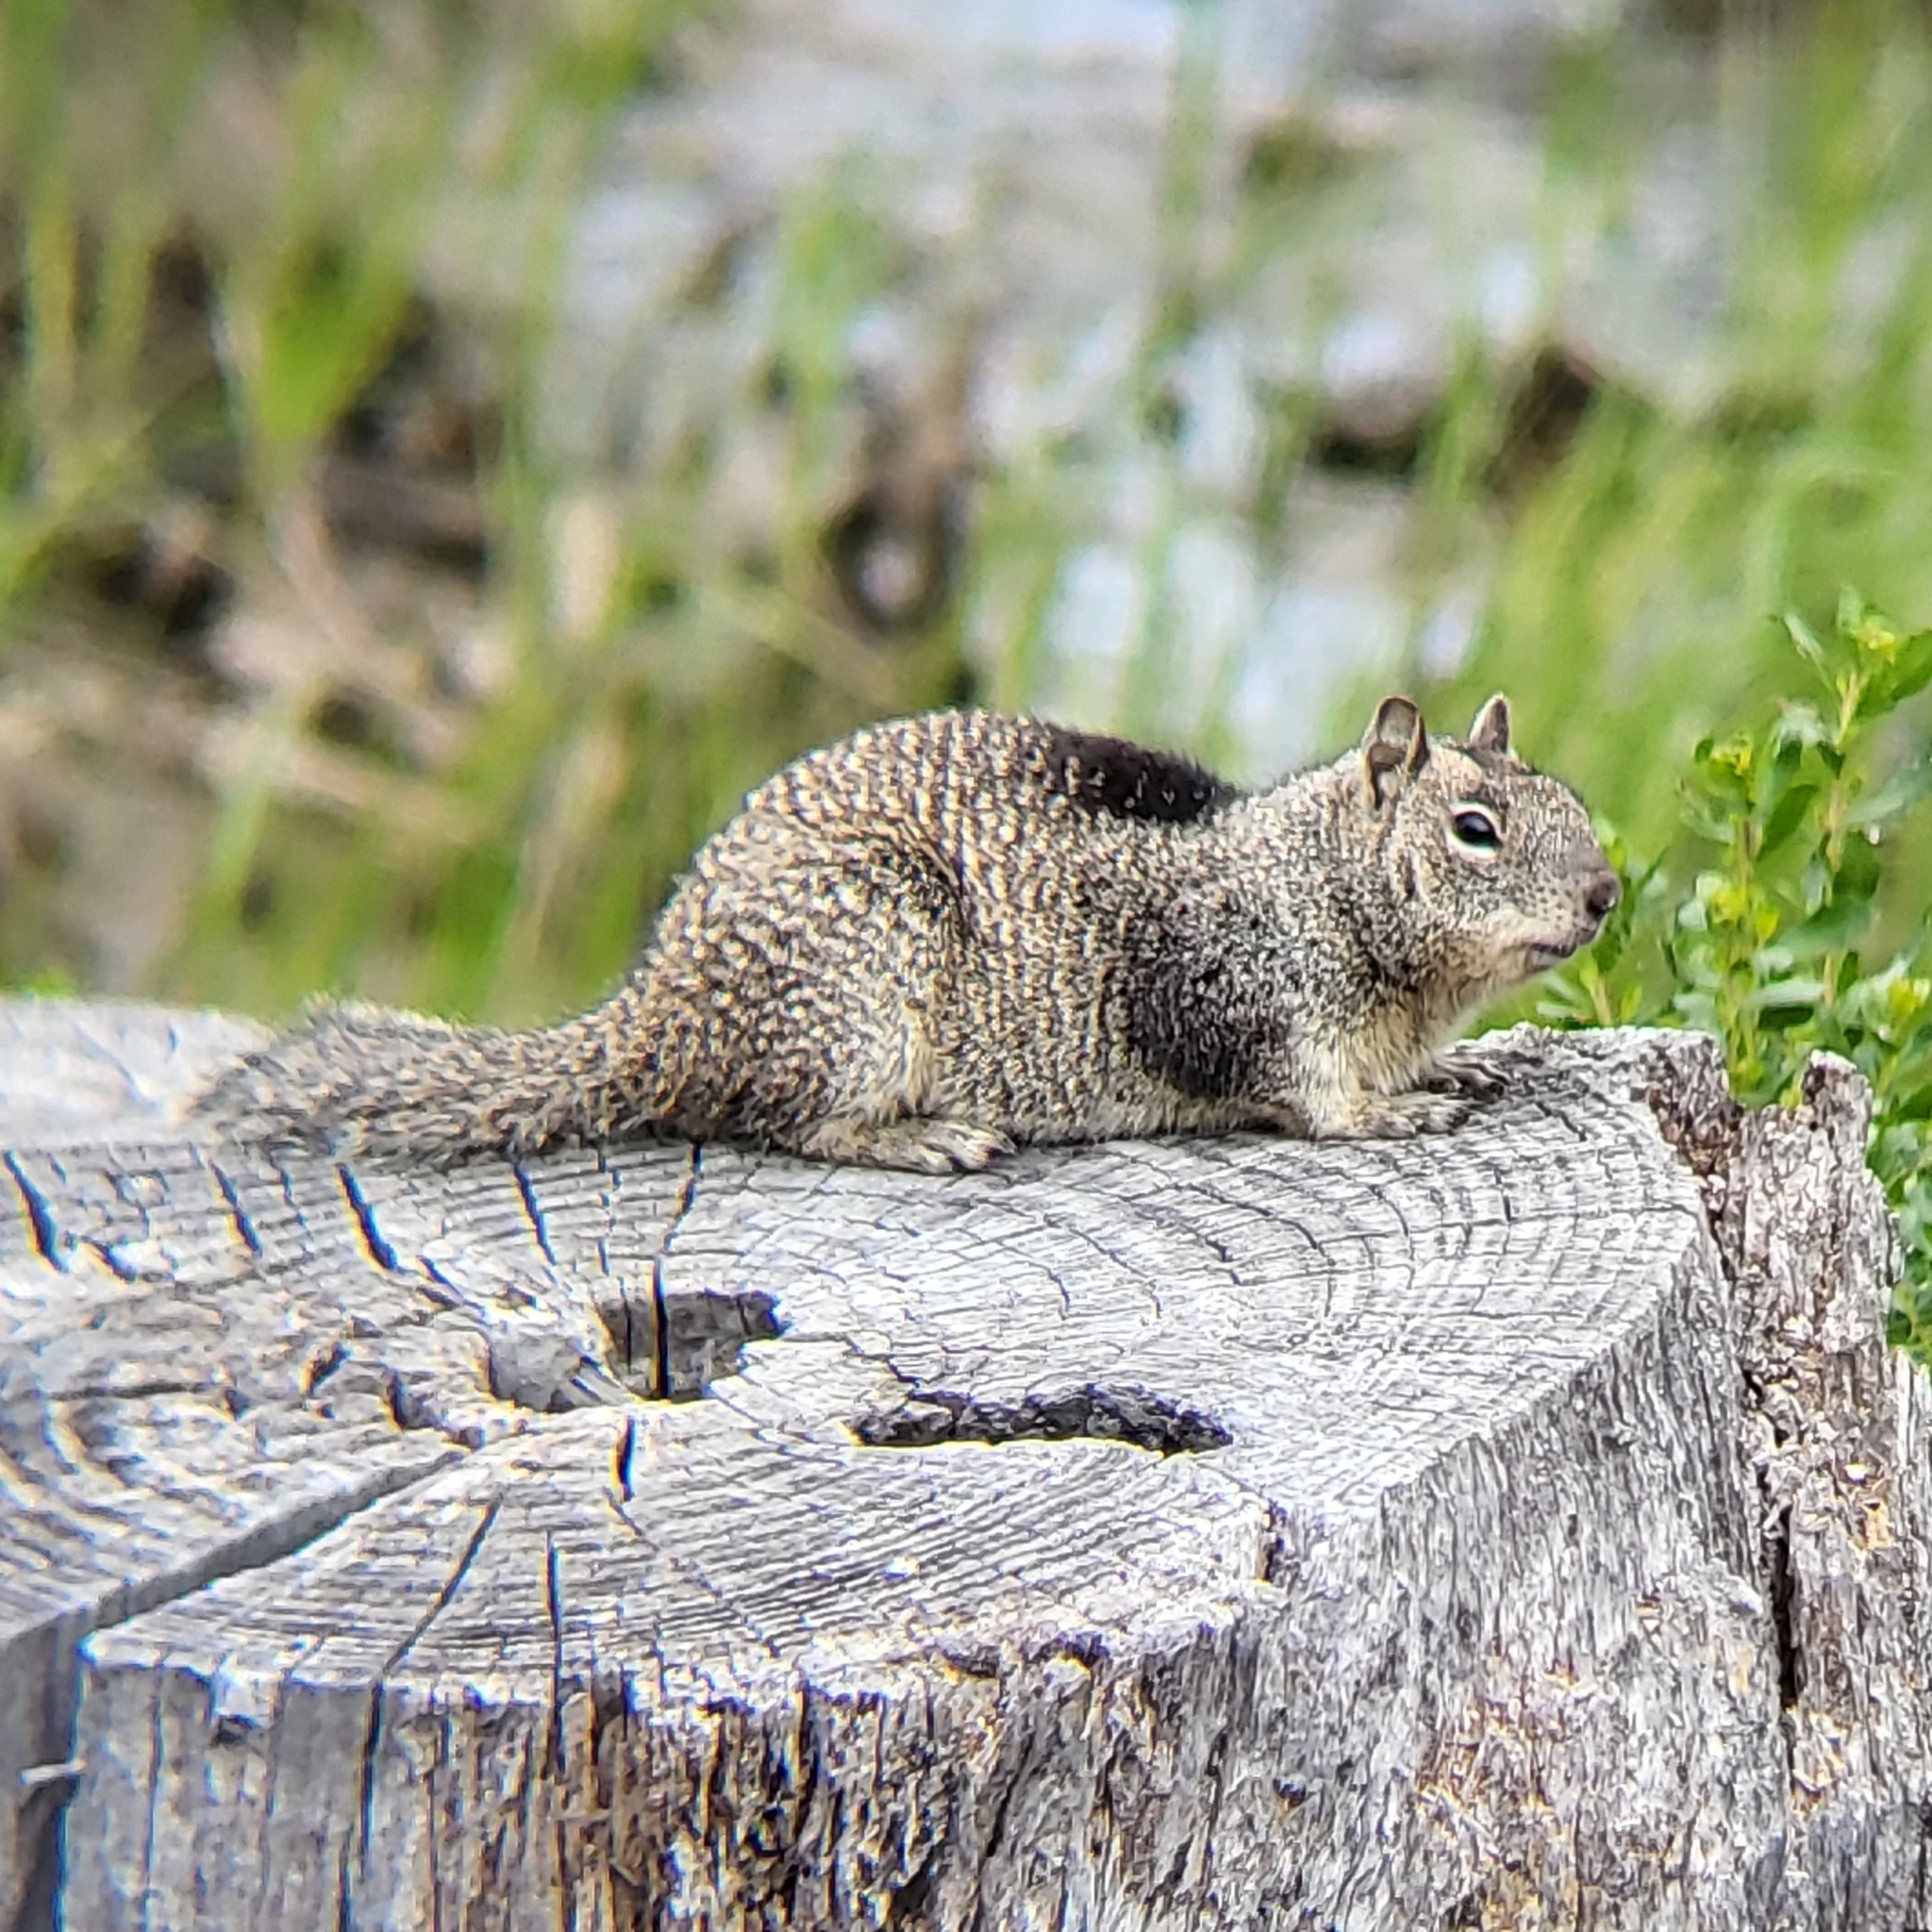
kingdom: Animalia
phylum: Chordata
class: Mammalia
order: Rodentia
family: Sciuridae
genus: Otospermophilus
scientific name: Otospermophilus beecheyi
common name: California ground squirrel
